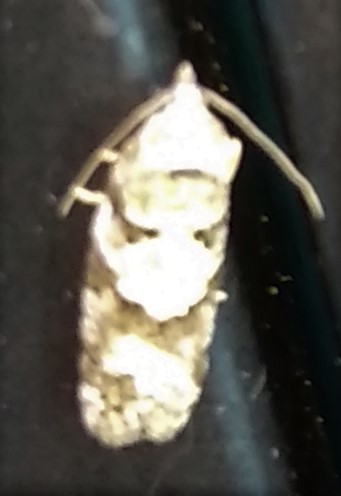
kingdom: Animalia
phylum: Arthropoda
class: Insecta
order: Lepidoptera
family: Tortricidae
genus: Cnephasia
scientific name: Cnephasia stephensiana
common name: Grey tortrix
